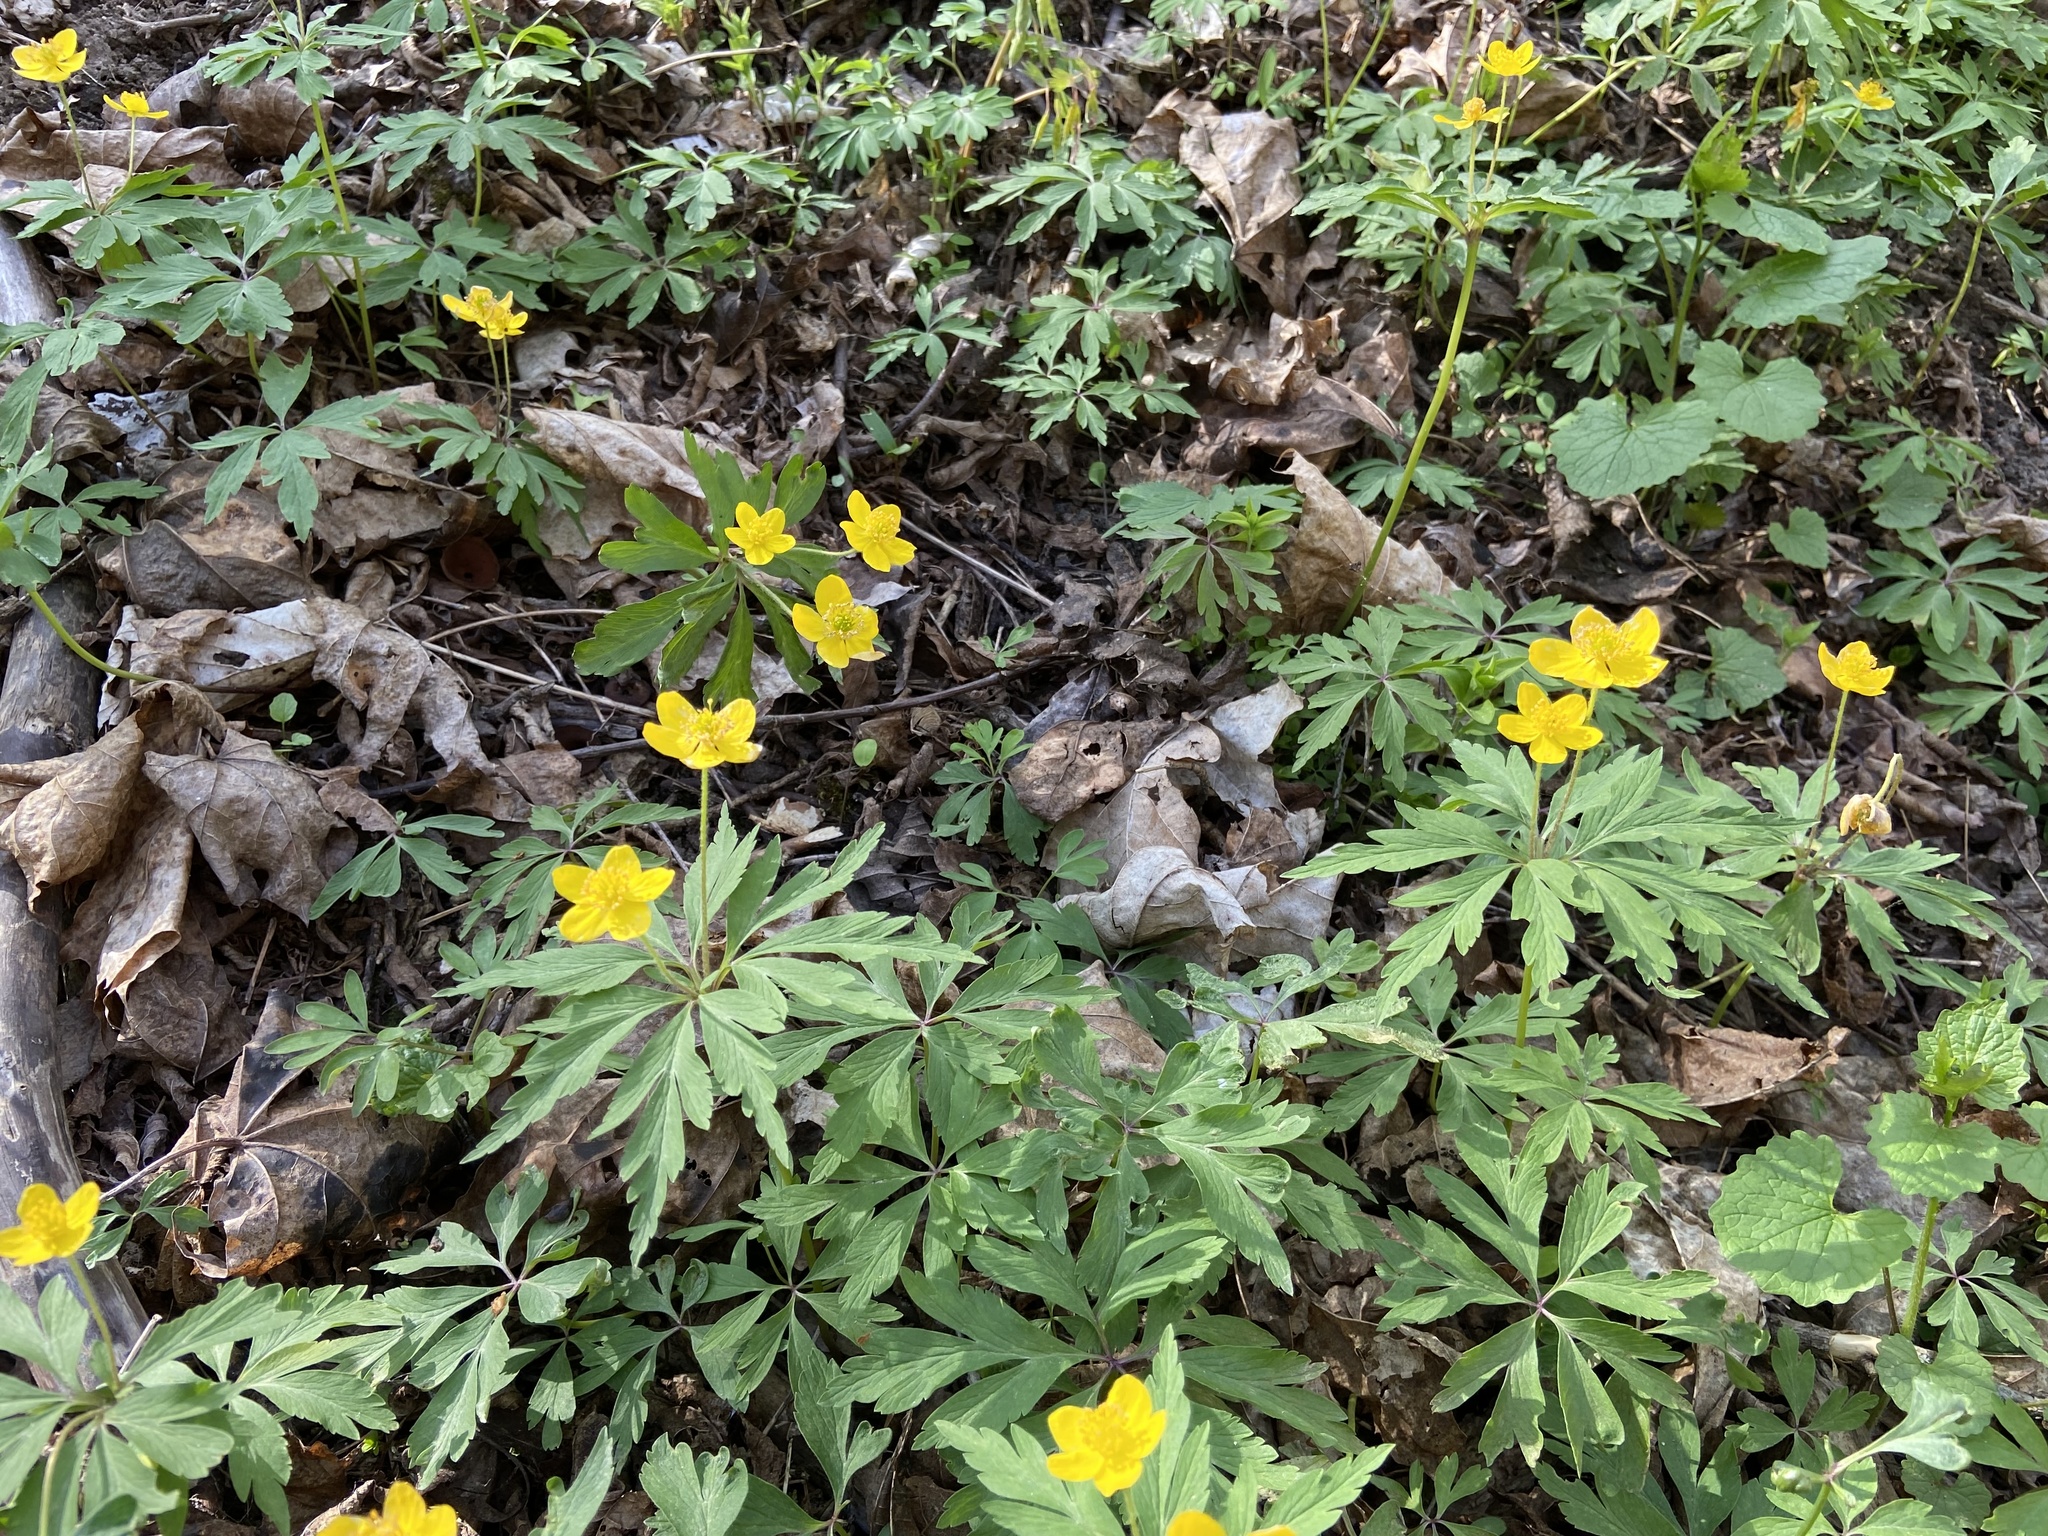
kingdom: Plantae
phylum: Tracheophyta
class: Magnoliopsida
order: Ranunculales
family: Ranunculaceae
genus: Anemone
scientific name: Anemone ranunculoides
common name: Yellow anemone
